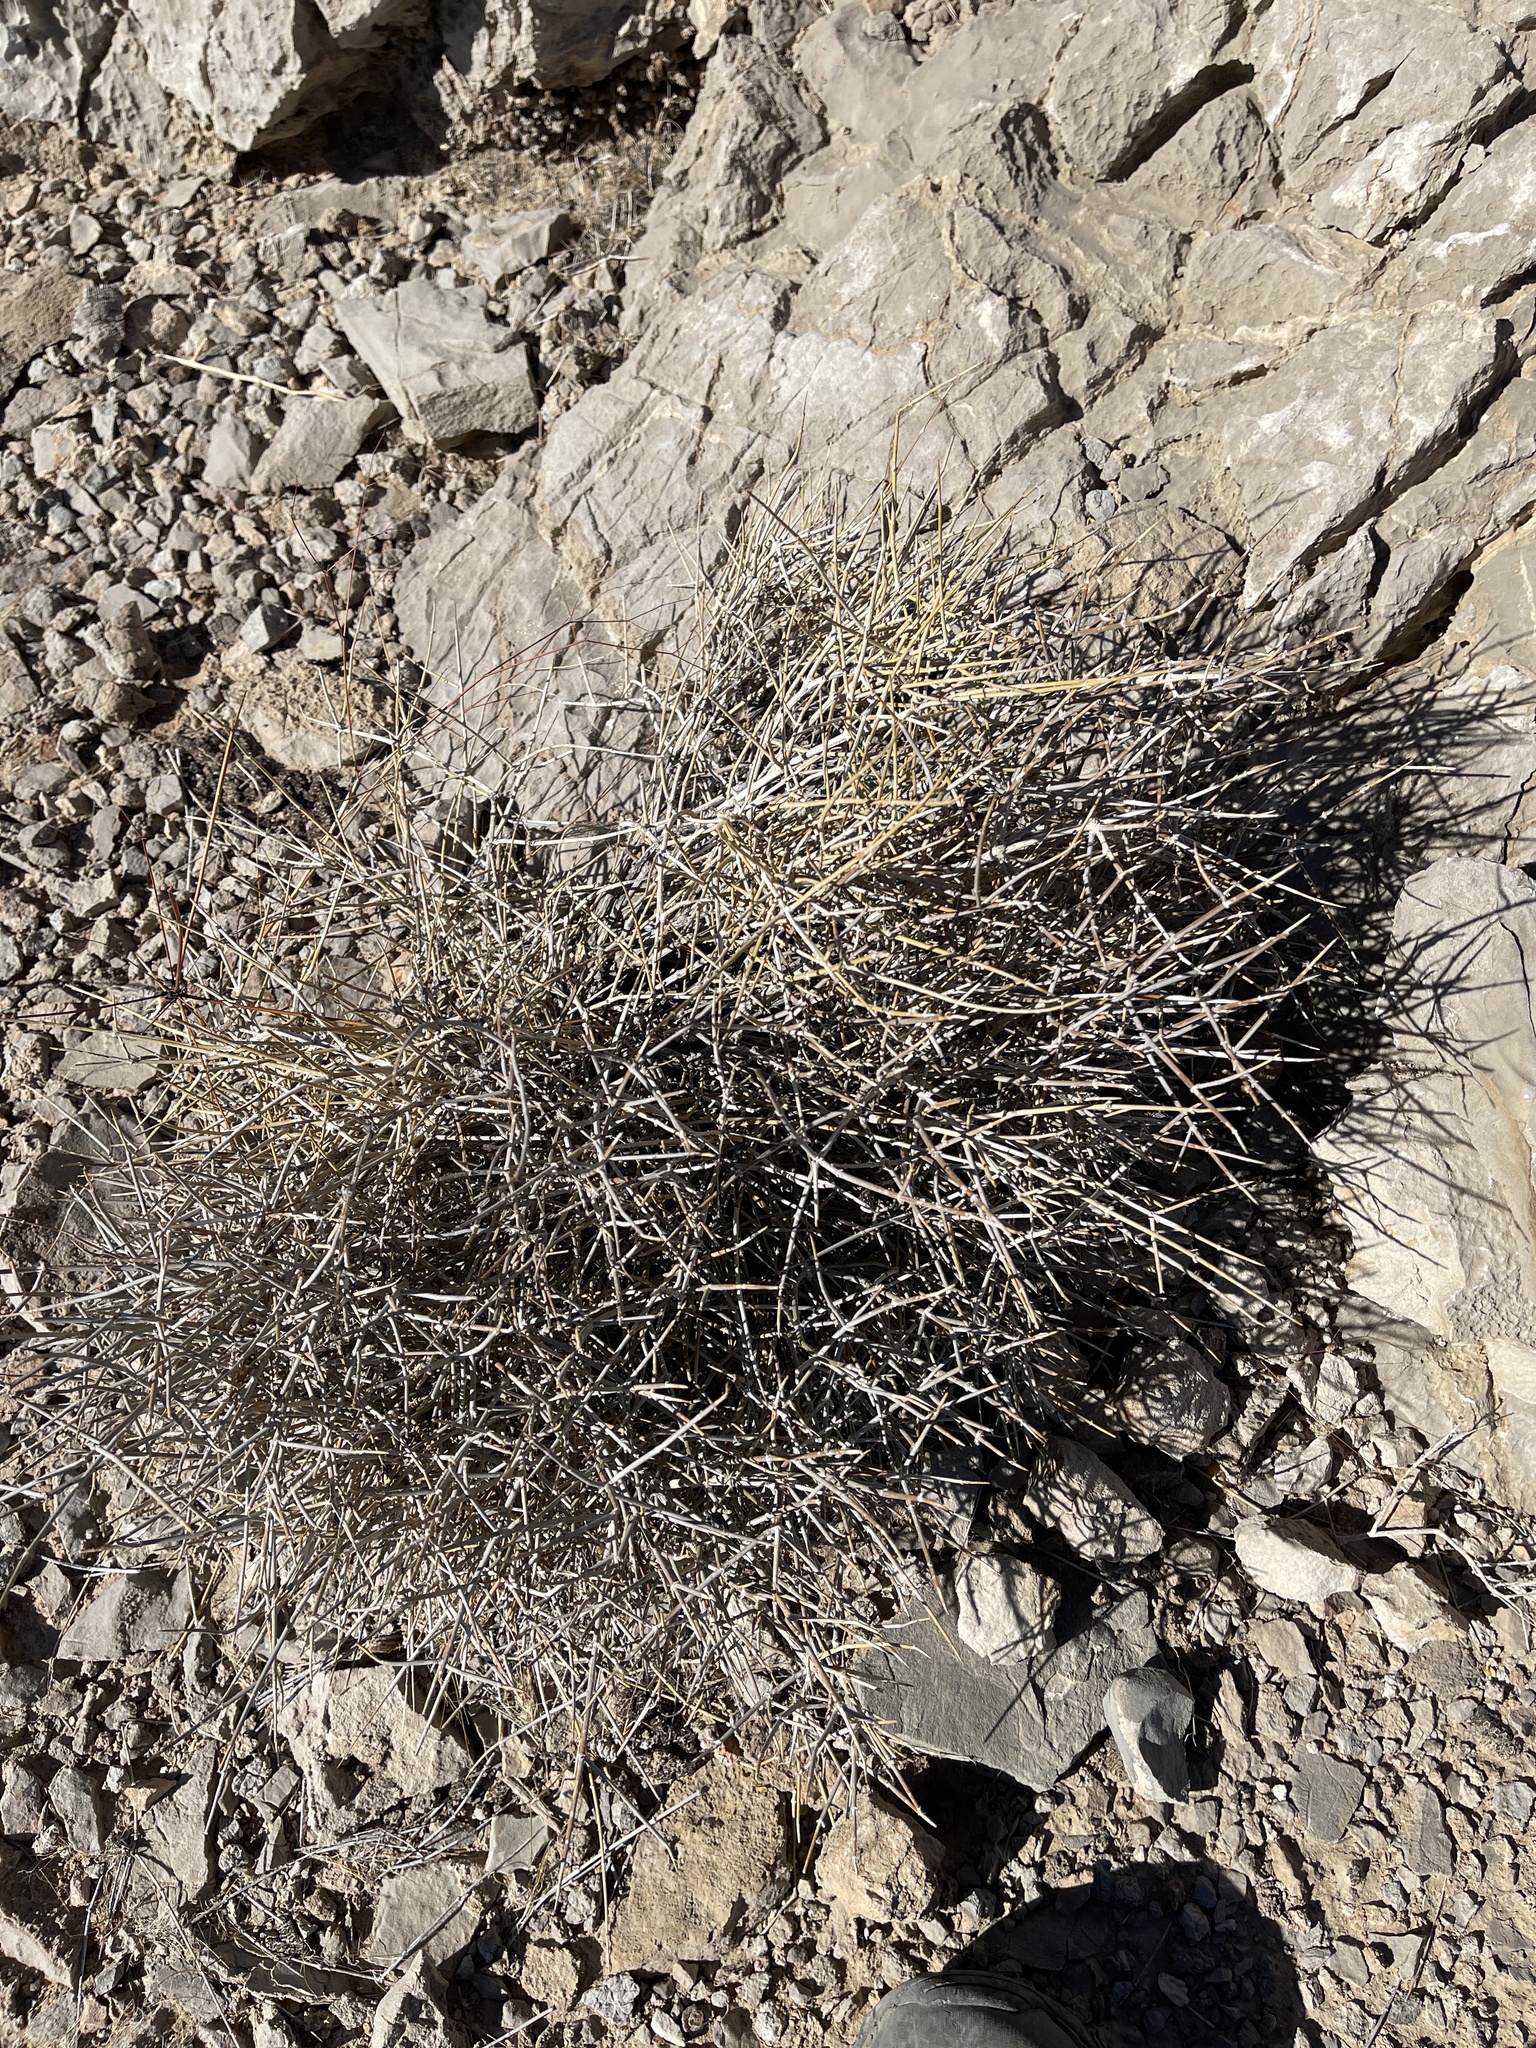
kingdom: Plantae
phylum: Tracheophyta
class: Gnetopsida
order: Ephedrales
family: Ephedraceae
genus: Ephedra
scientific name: Ephedra nevadensis
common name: Gray ephedra
